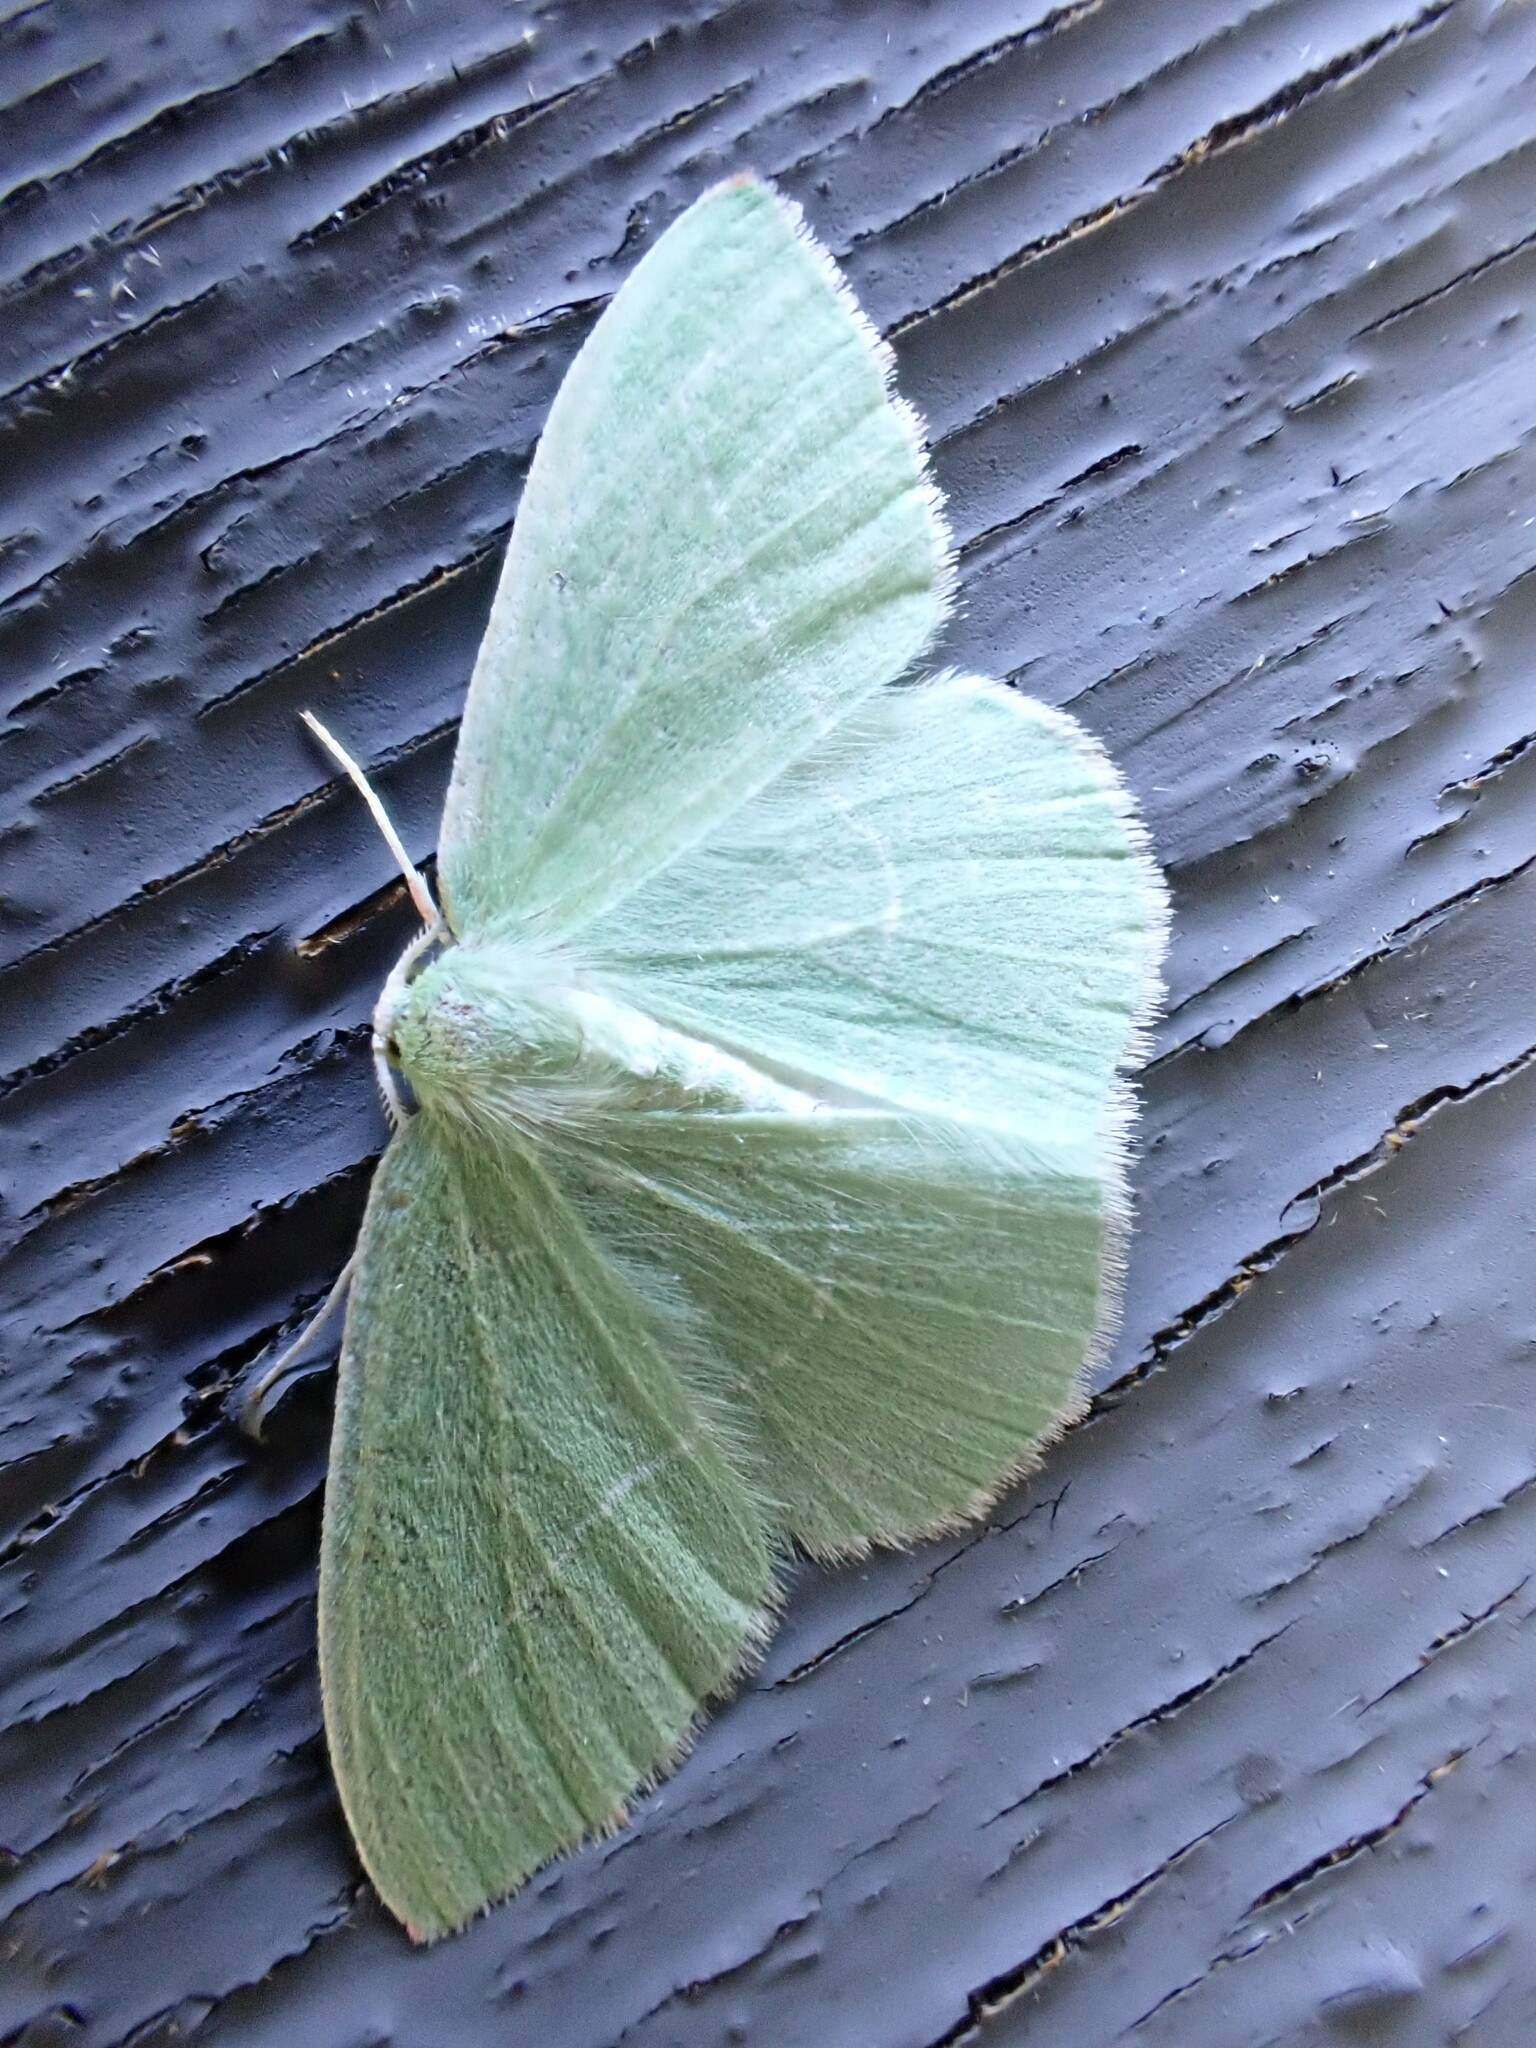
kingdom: Animalia
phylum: Arthropoda
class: Insecta
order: Lepidoptera
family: Geometridae
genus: Nemoria
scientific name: Nemoria unitaria
